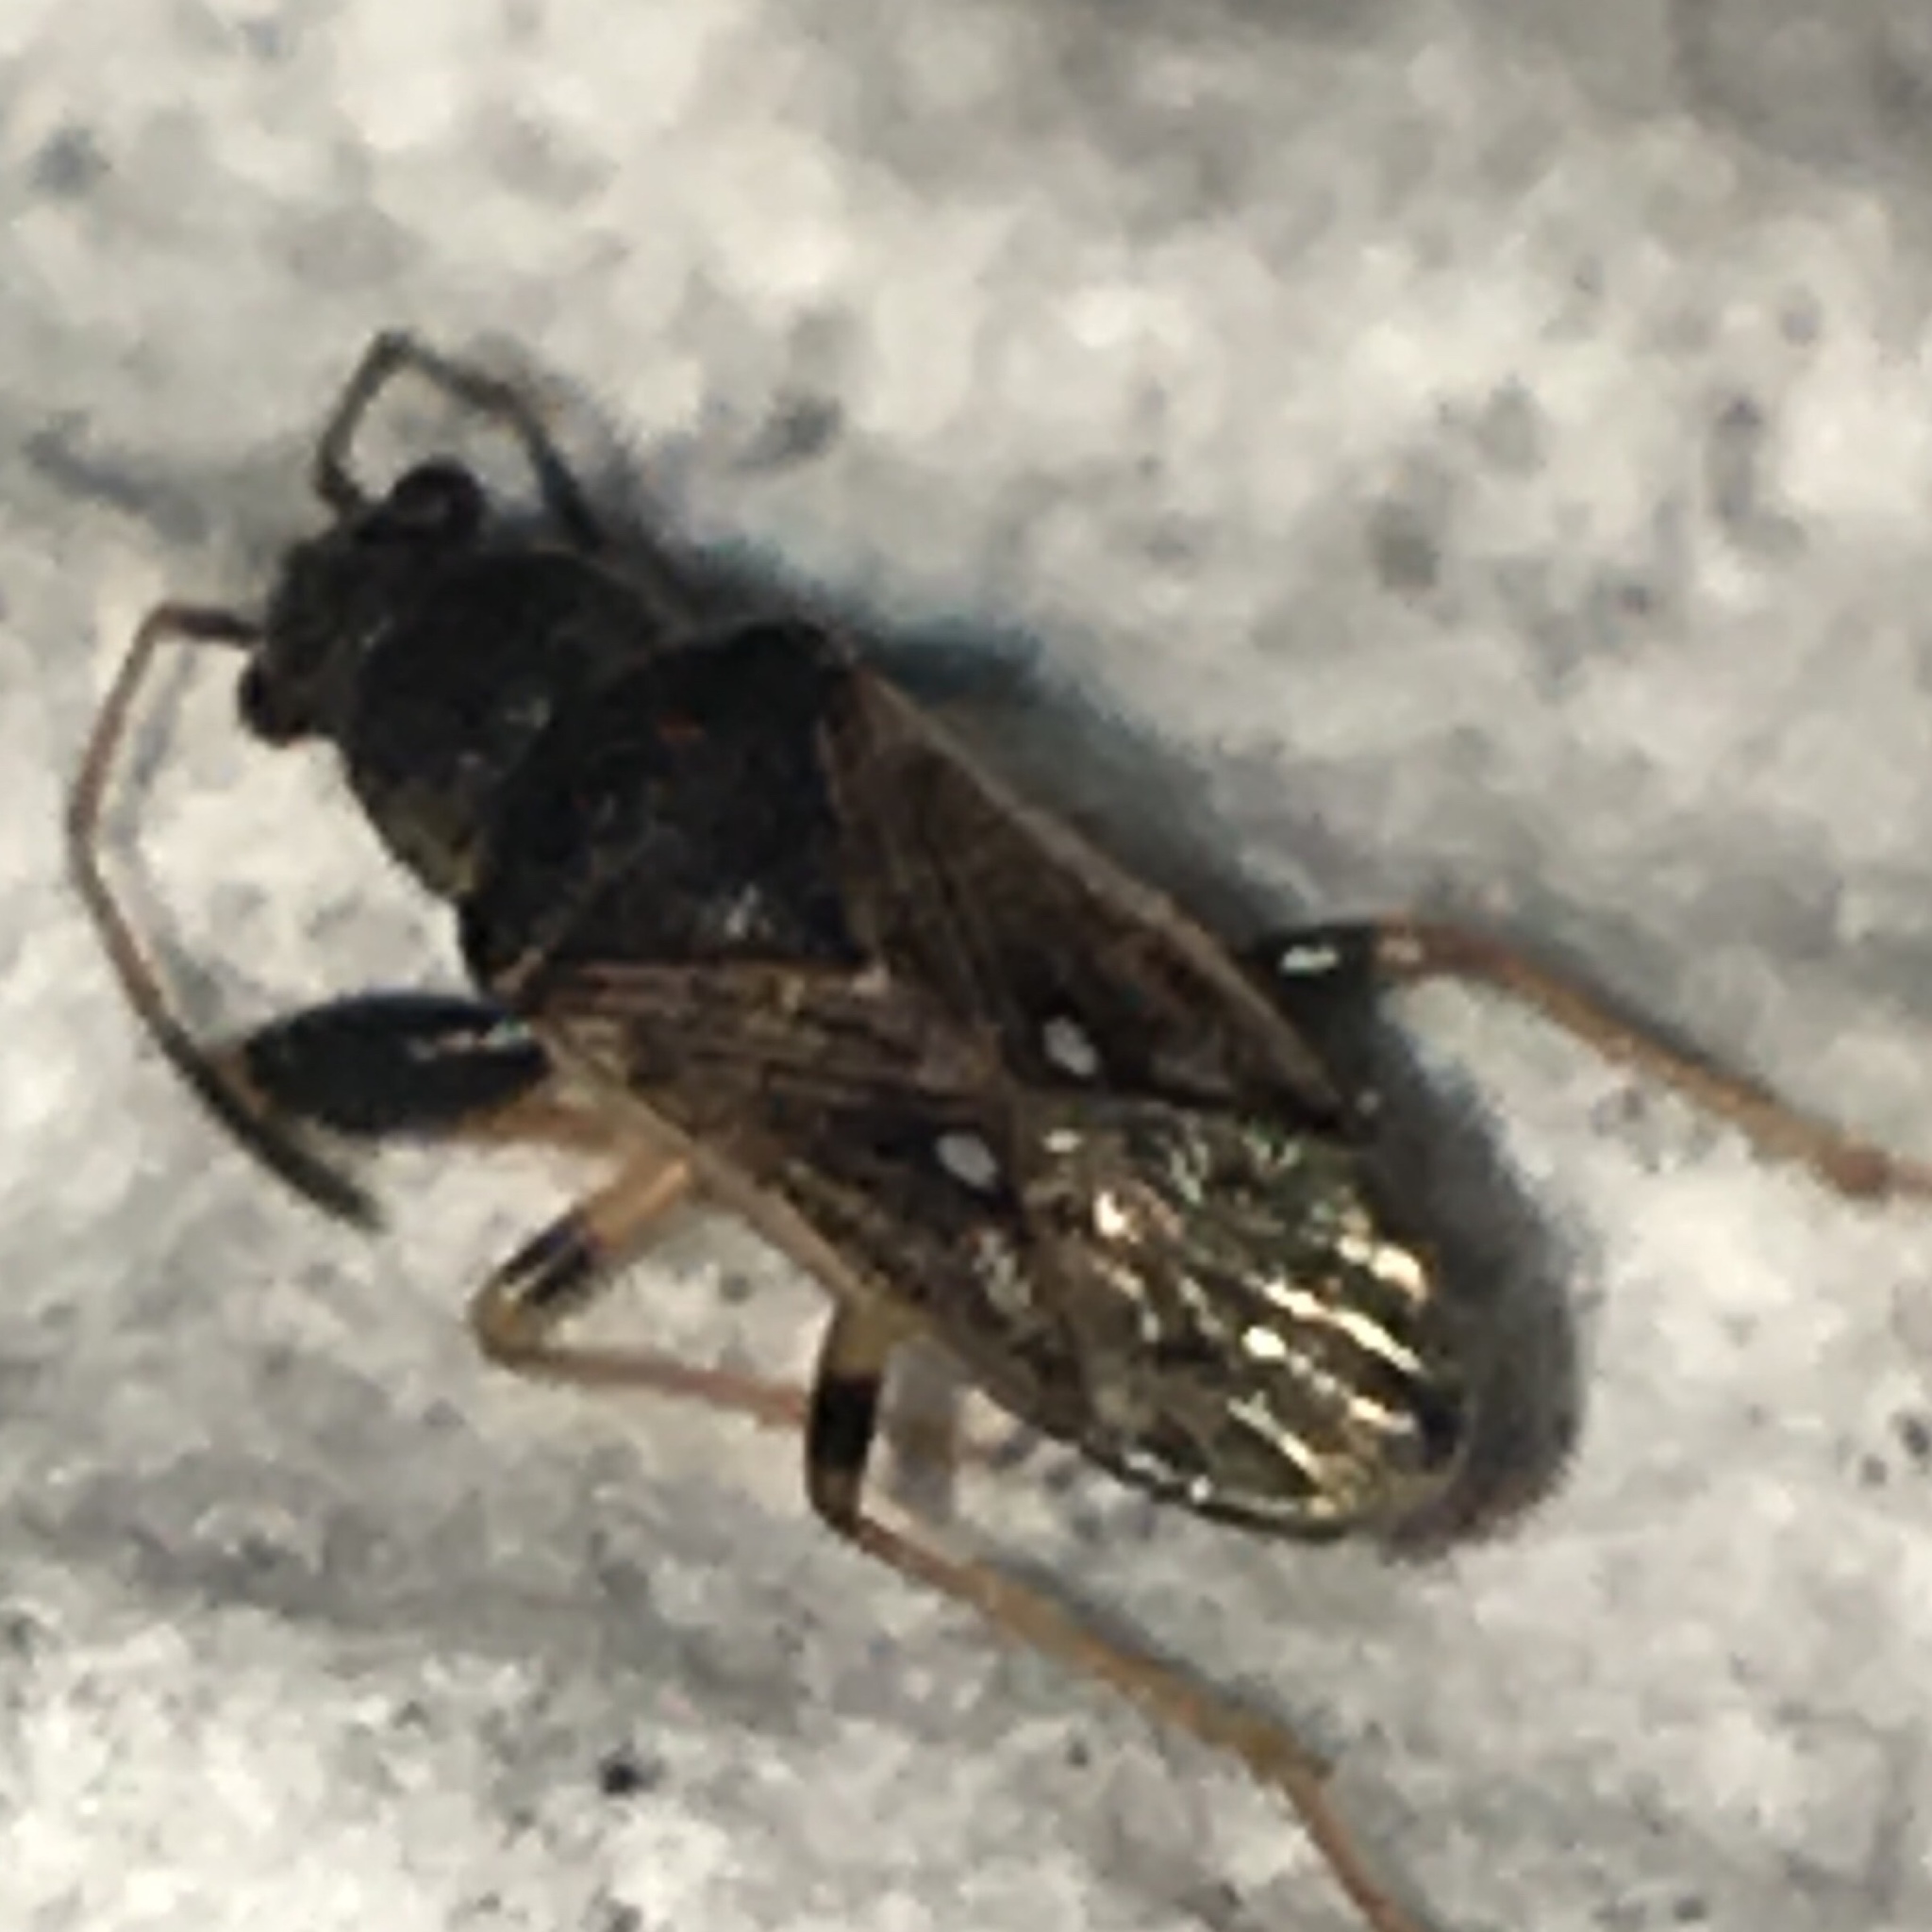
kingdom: Animalia
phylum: Arthropoda
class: Insecta
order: Hemiptera
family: Rhyparochromidae
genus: Pseudopachybrachius
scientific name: Pseudopachybrachius basalis
